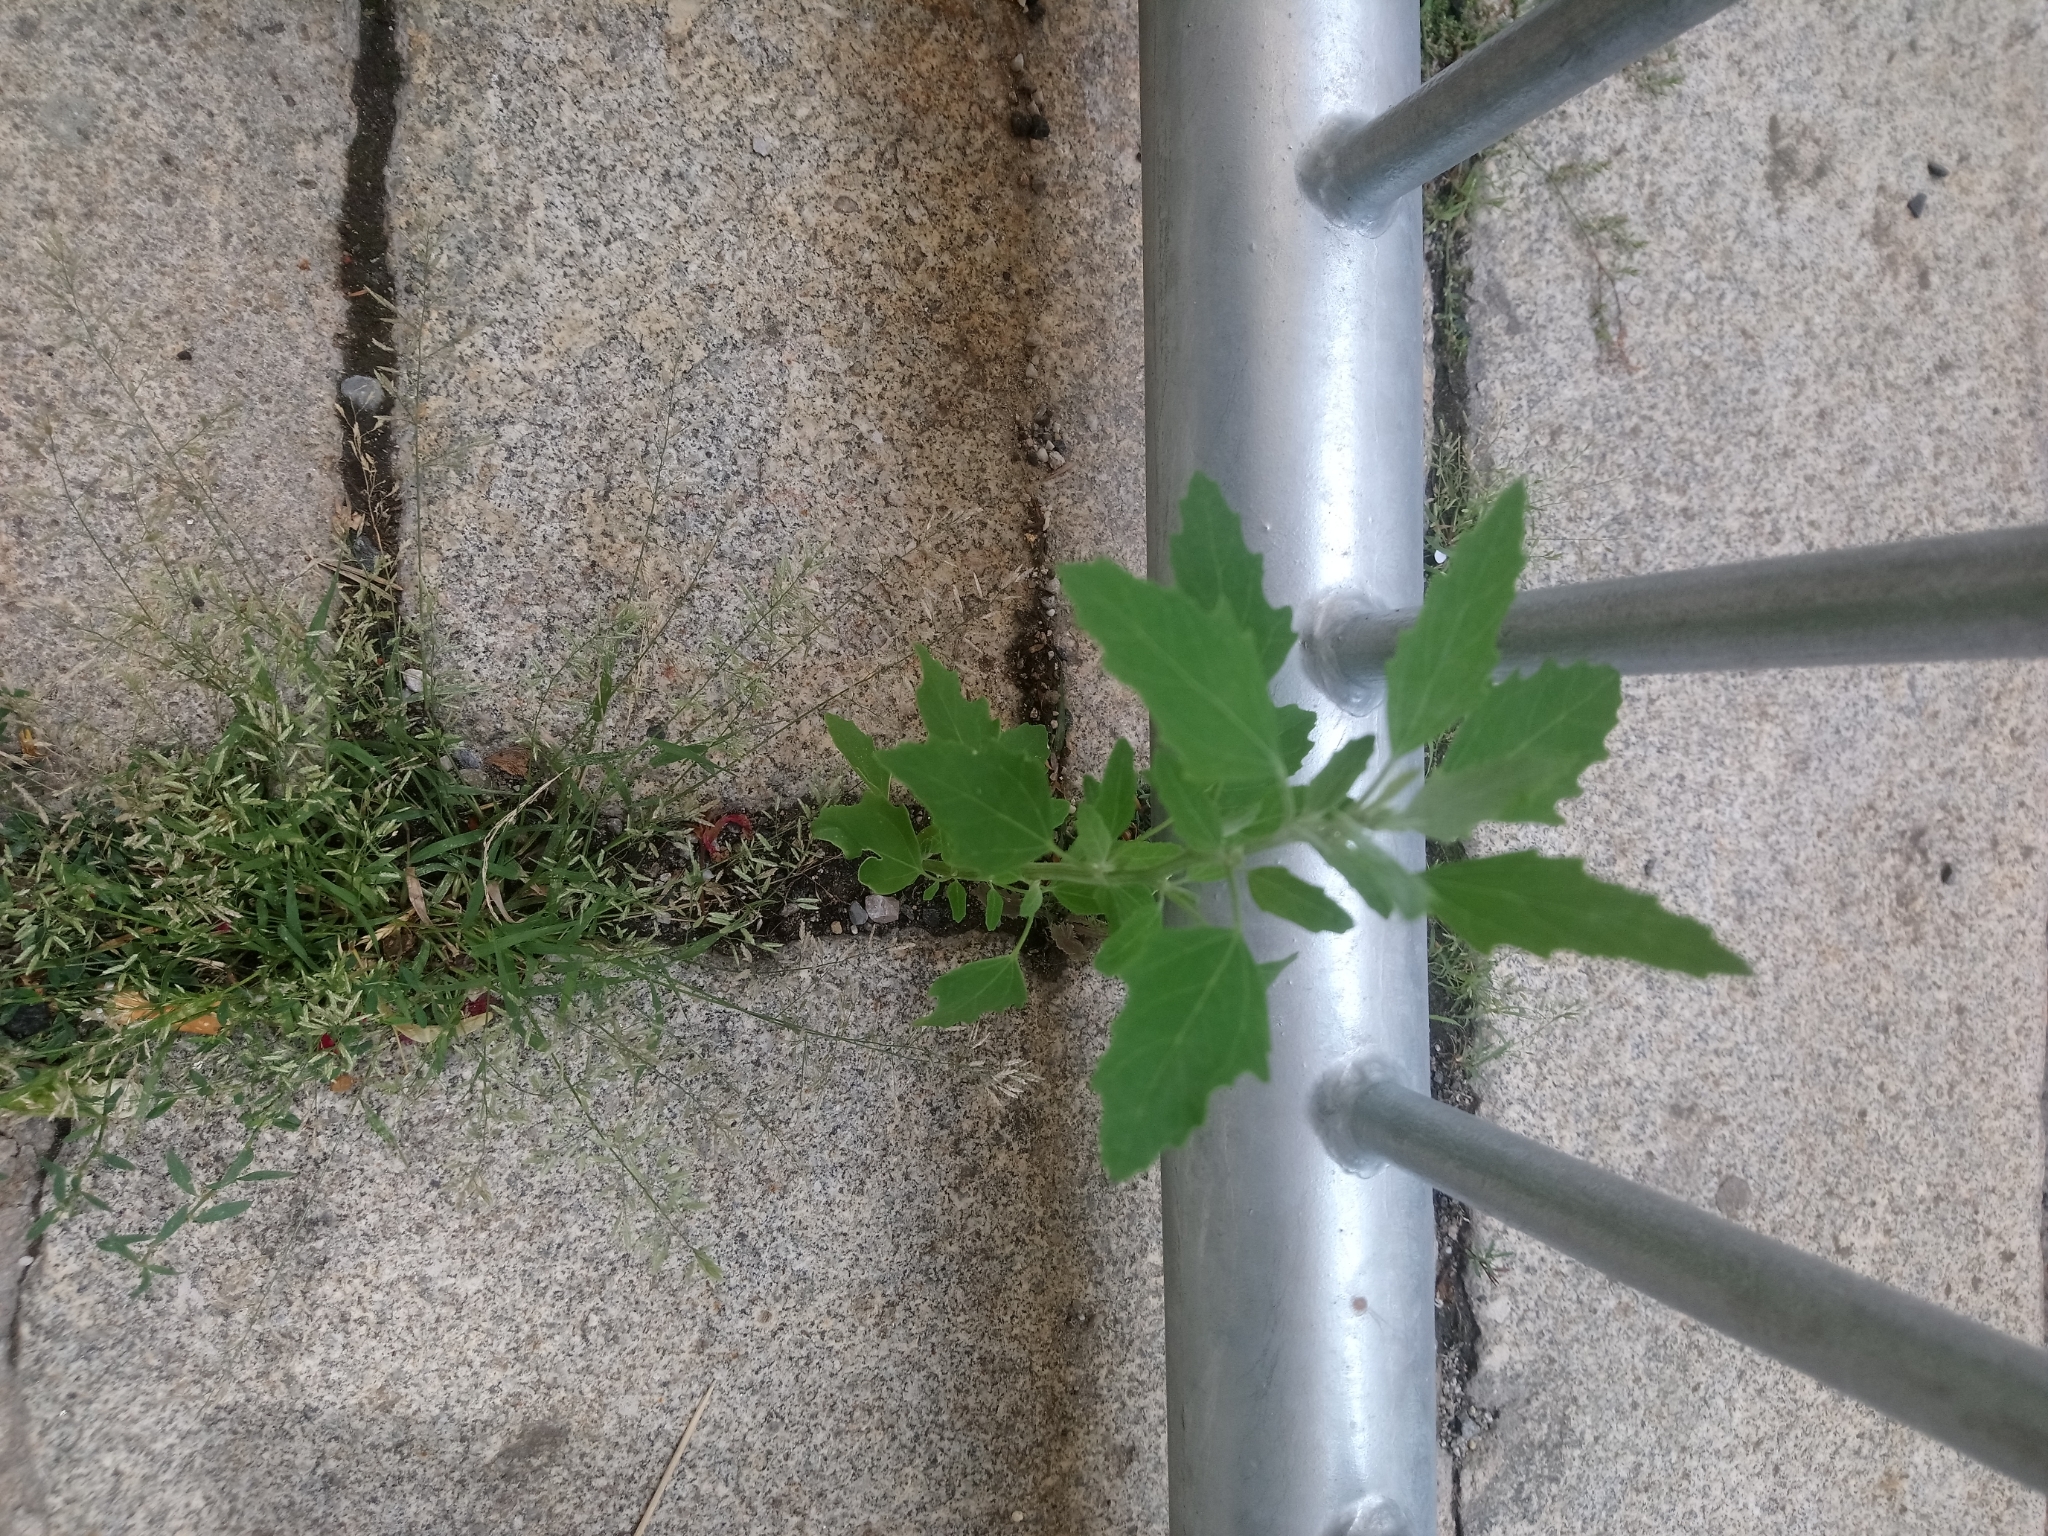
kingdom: Plantae
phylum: Tracheophyta
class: Magnoliopsida
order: Caryophyllales
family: Amaranthaceae
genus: Chenopodium
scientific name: Chenopodium album
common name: Fat-hen
